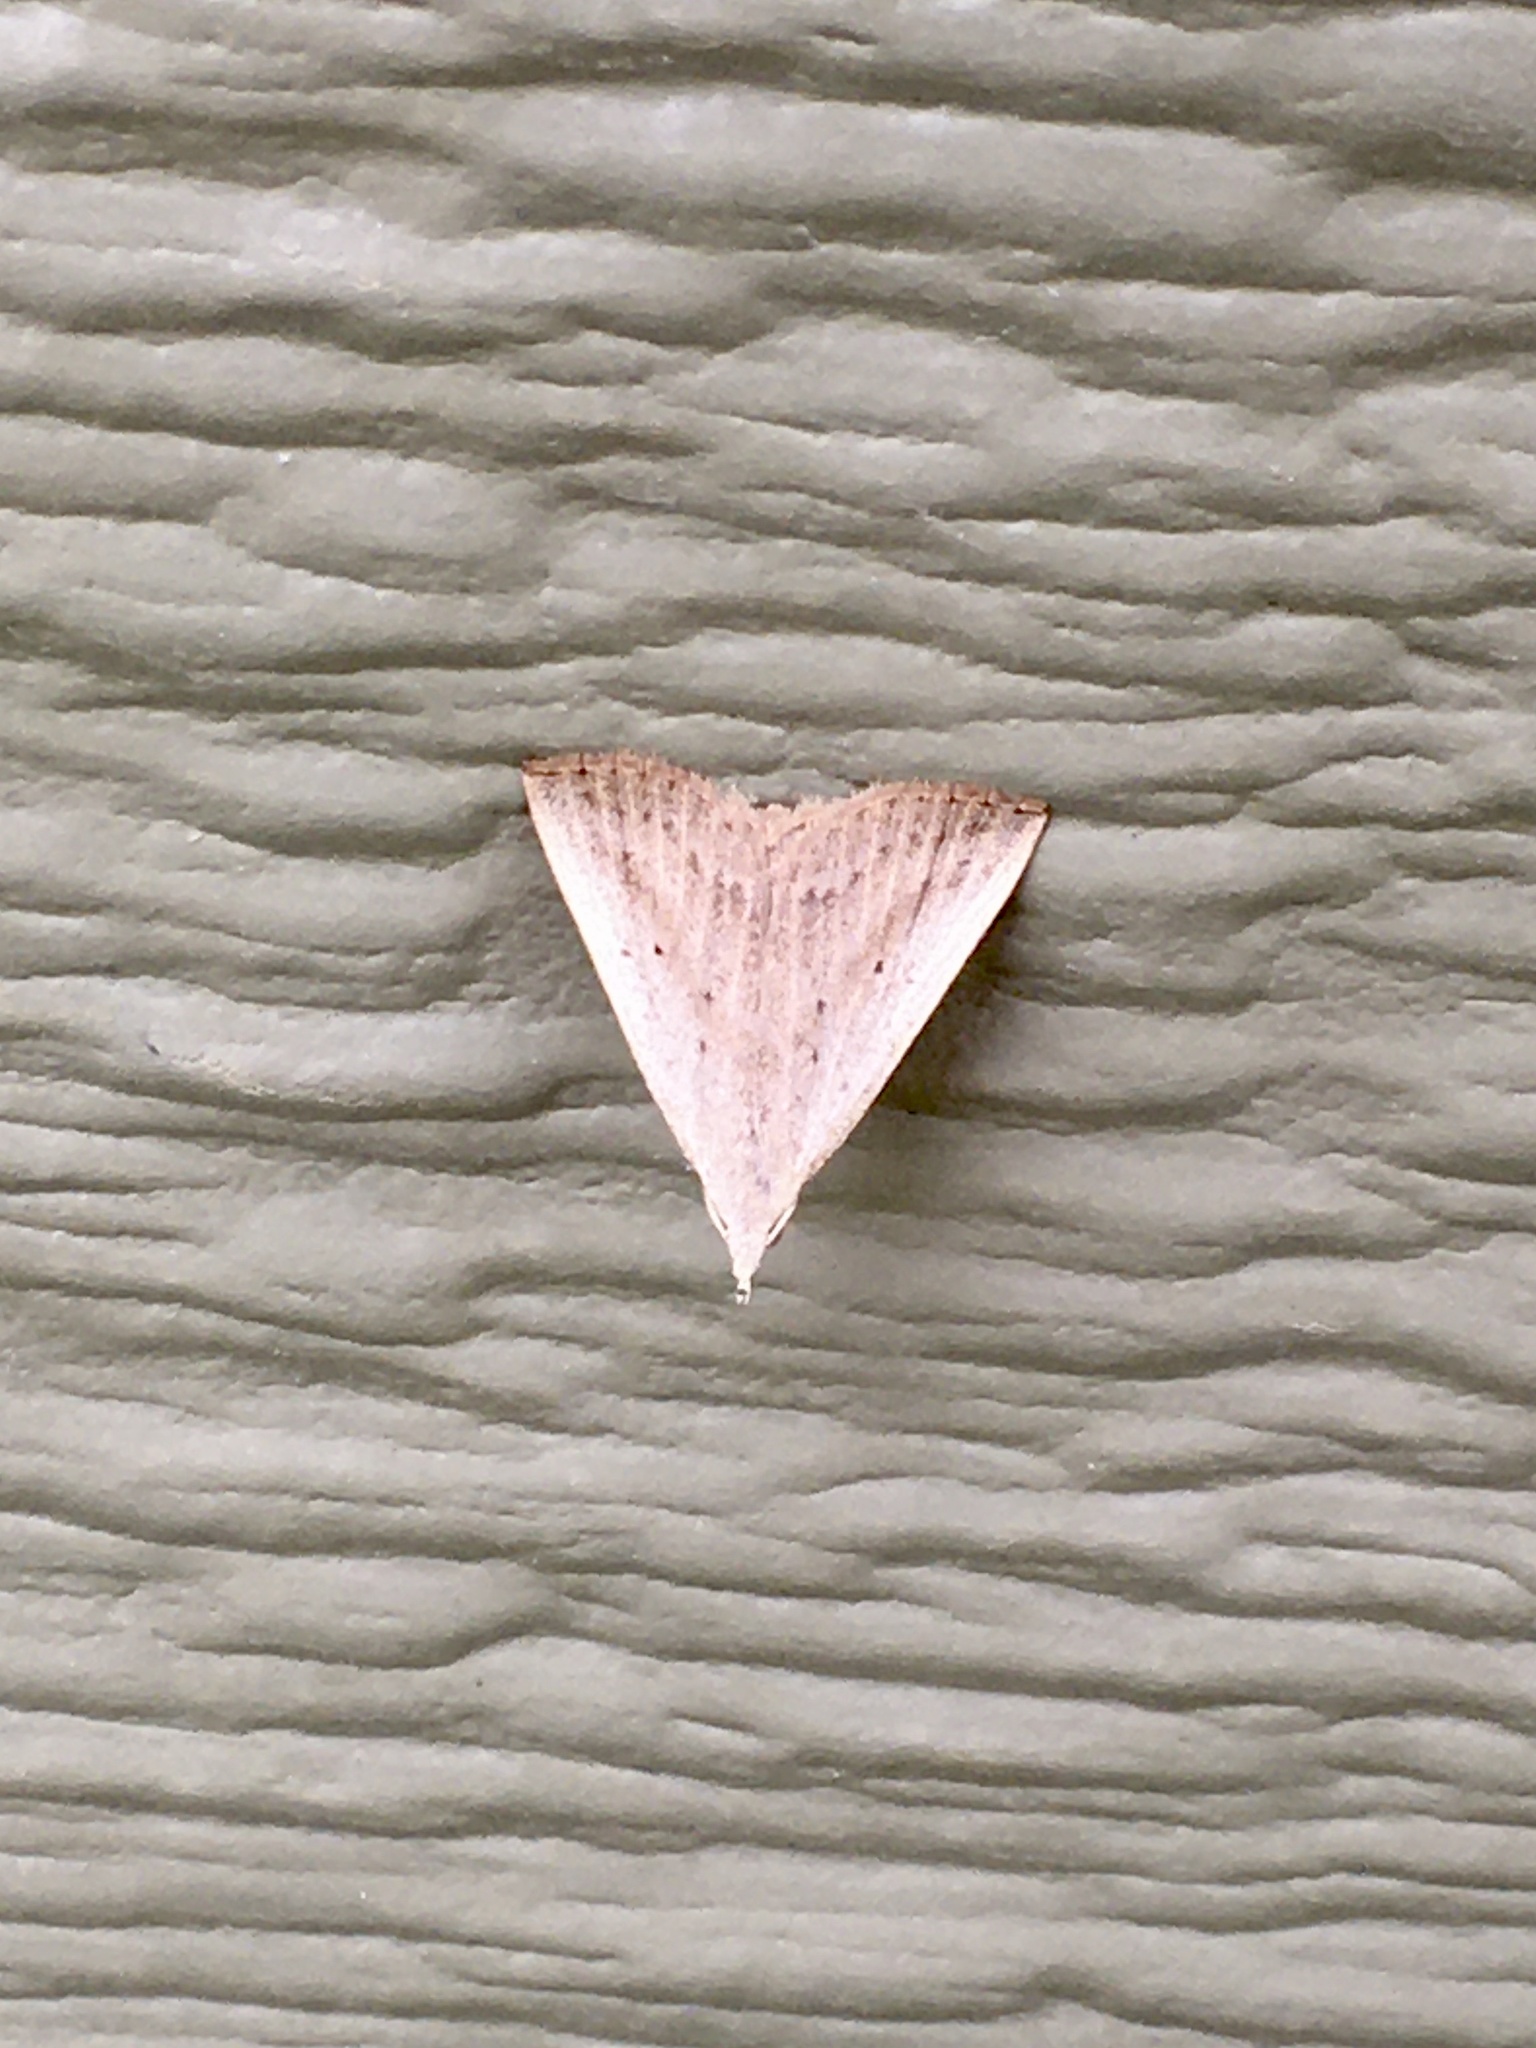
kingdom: Animalia
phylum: Arthropoda
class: Insecta
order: Lepidoptera
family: Erebidae
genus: Macrochilo
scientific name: Macrochilo louisiana
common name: Louisiana macrochilo
